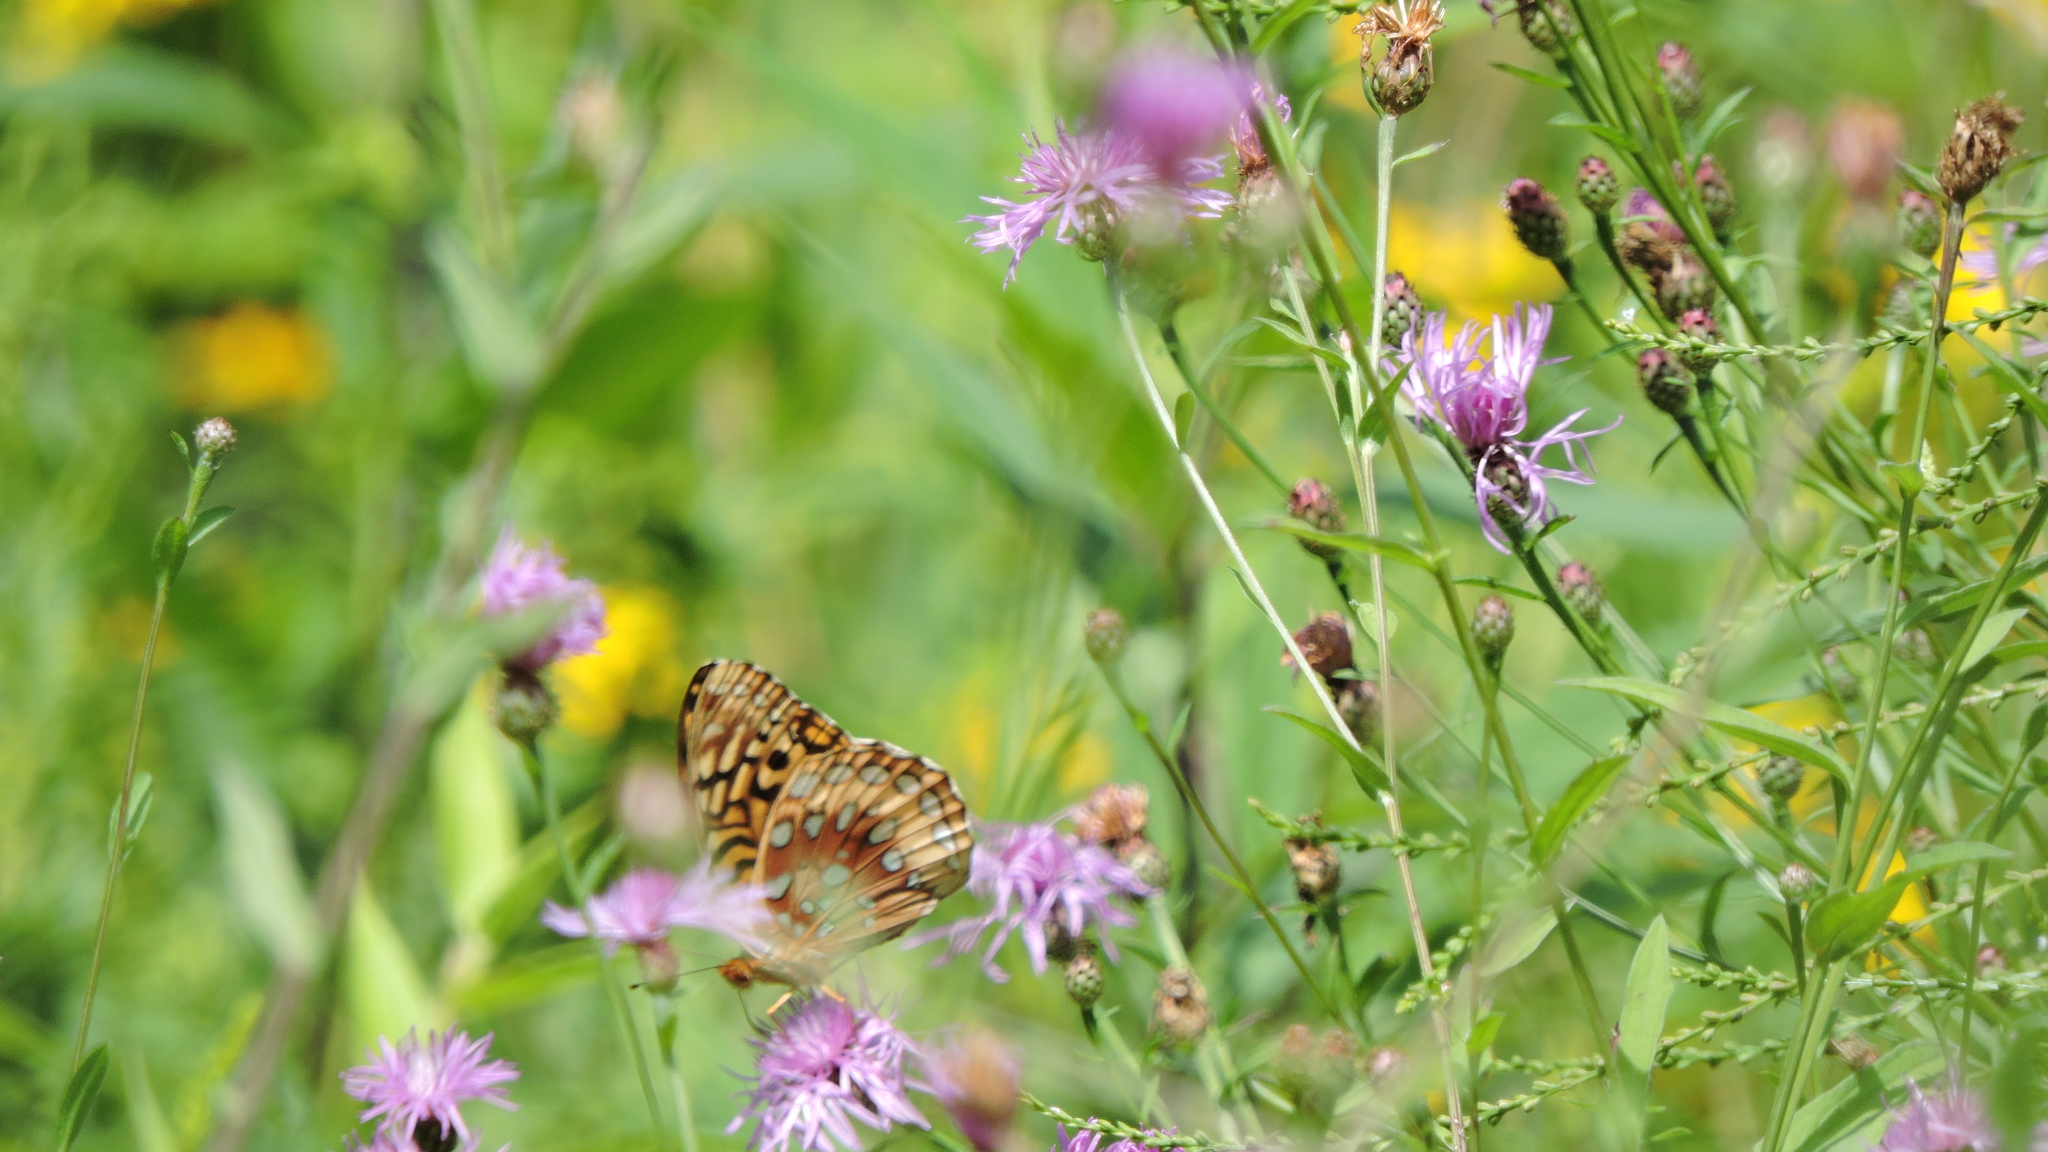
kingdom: Animalia
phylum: Arthropoda
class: Insecta
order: Lepidoptera
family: Nymphalidae
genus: Speyeria
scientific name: Speyeria cybele
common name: Great spangled fritillary
